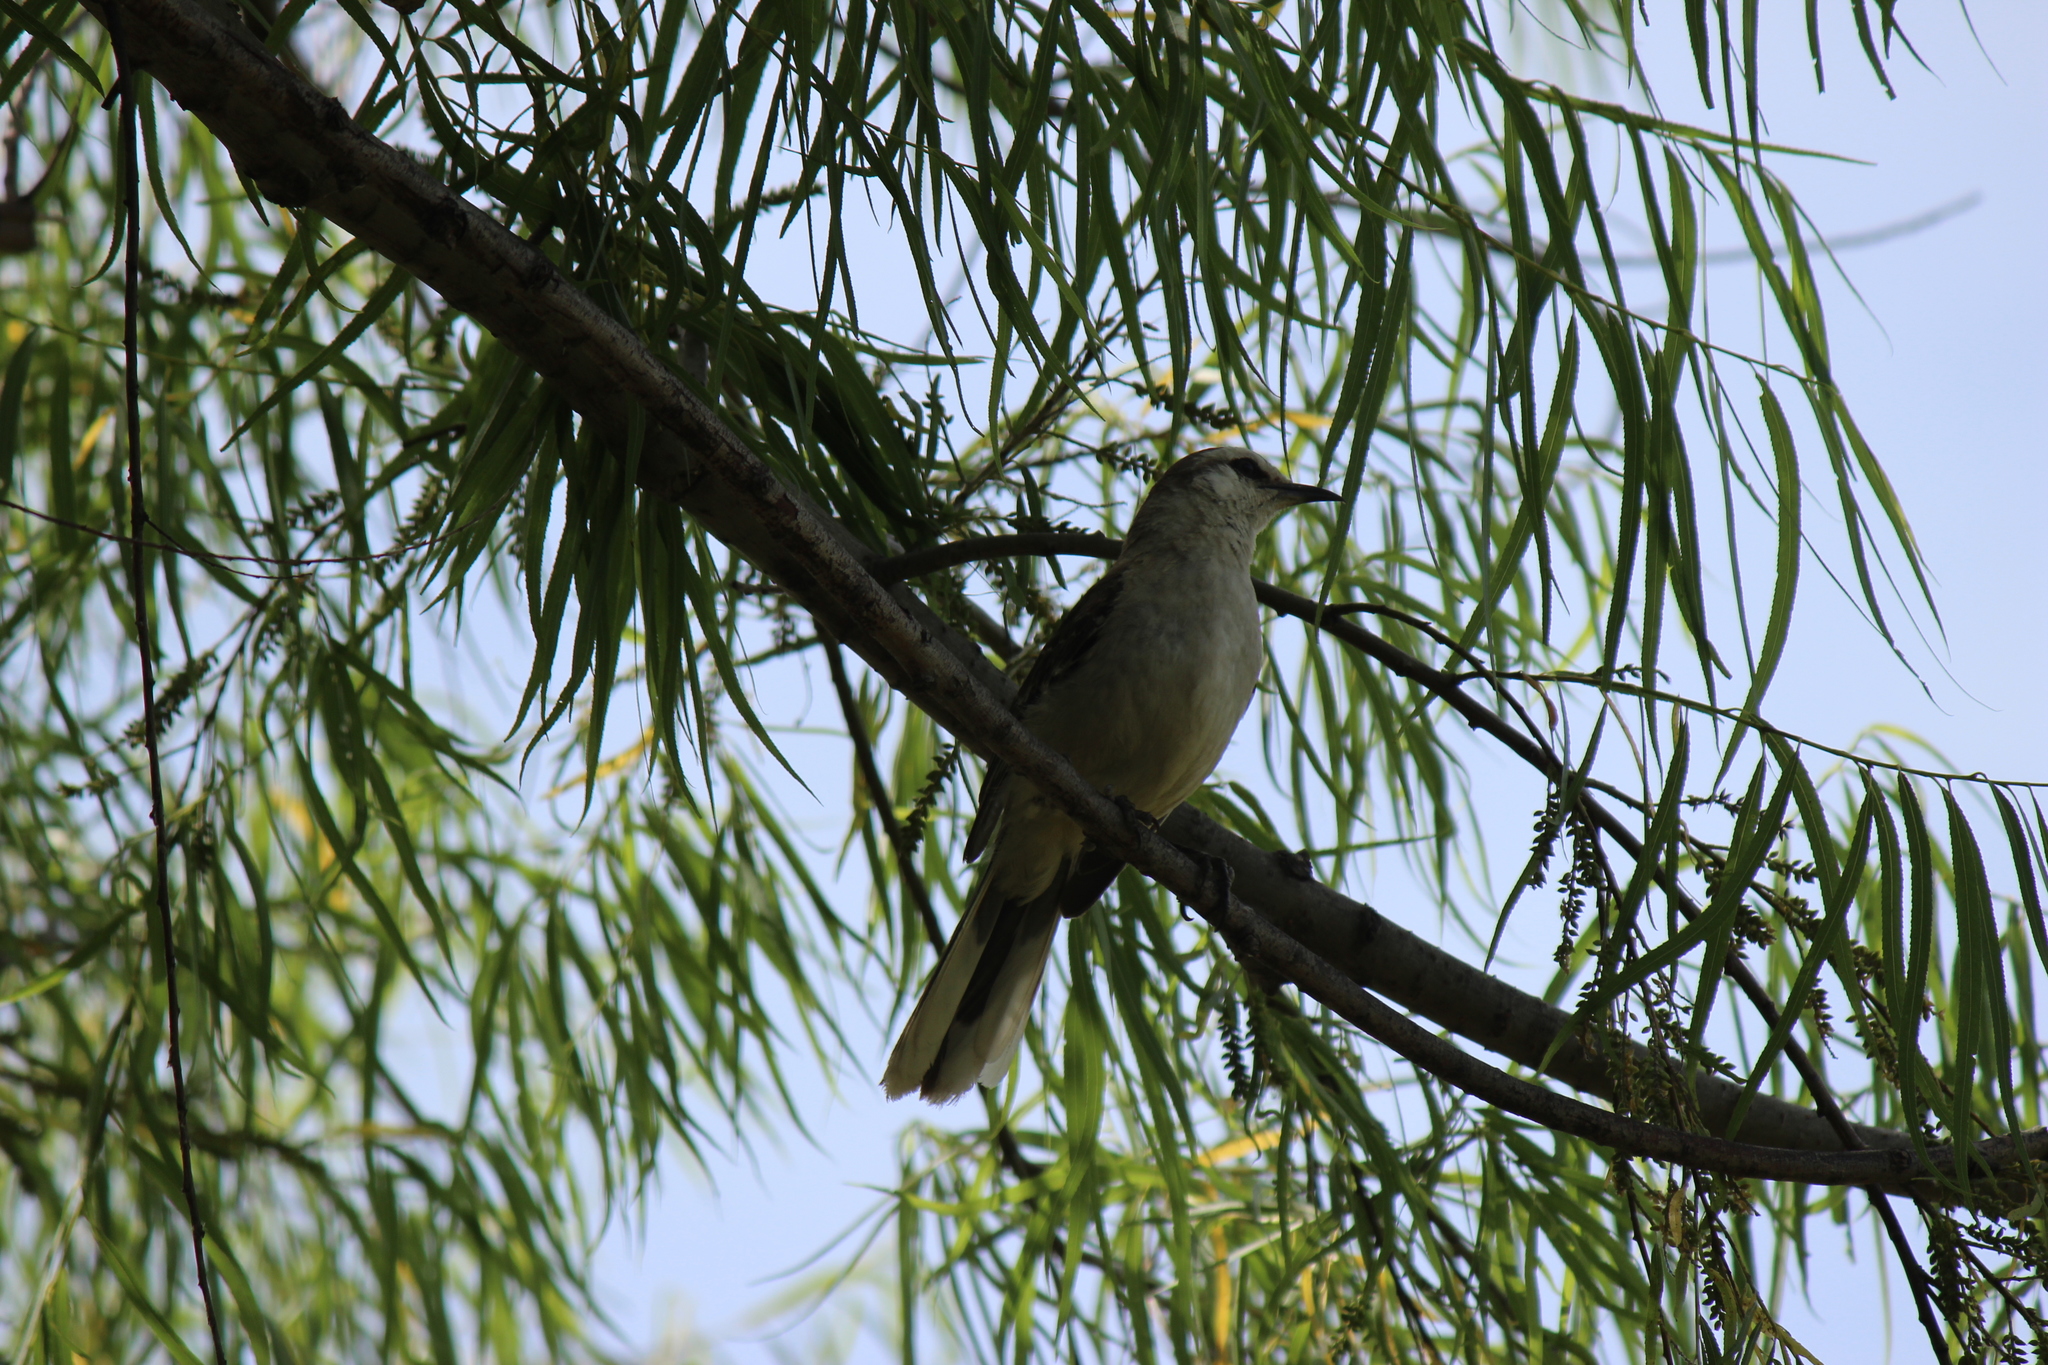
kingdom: Animalia
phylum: Chordata
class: Aves
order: Passeriformes
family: Mimidae
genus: Mimus
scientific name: Mimus saturninus
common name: Chalk-browed mockingbird
